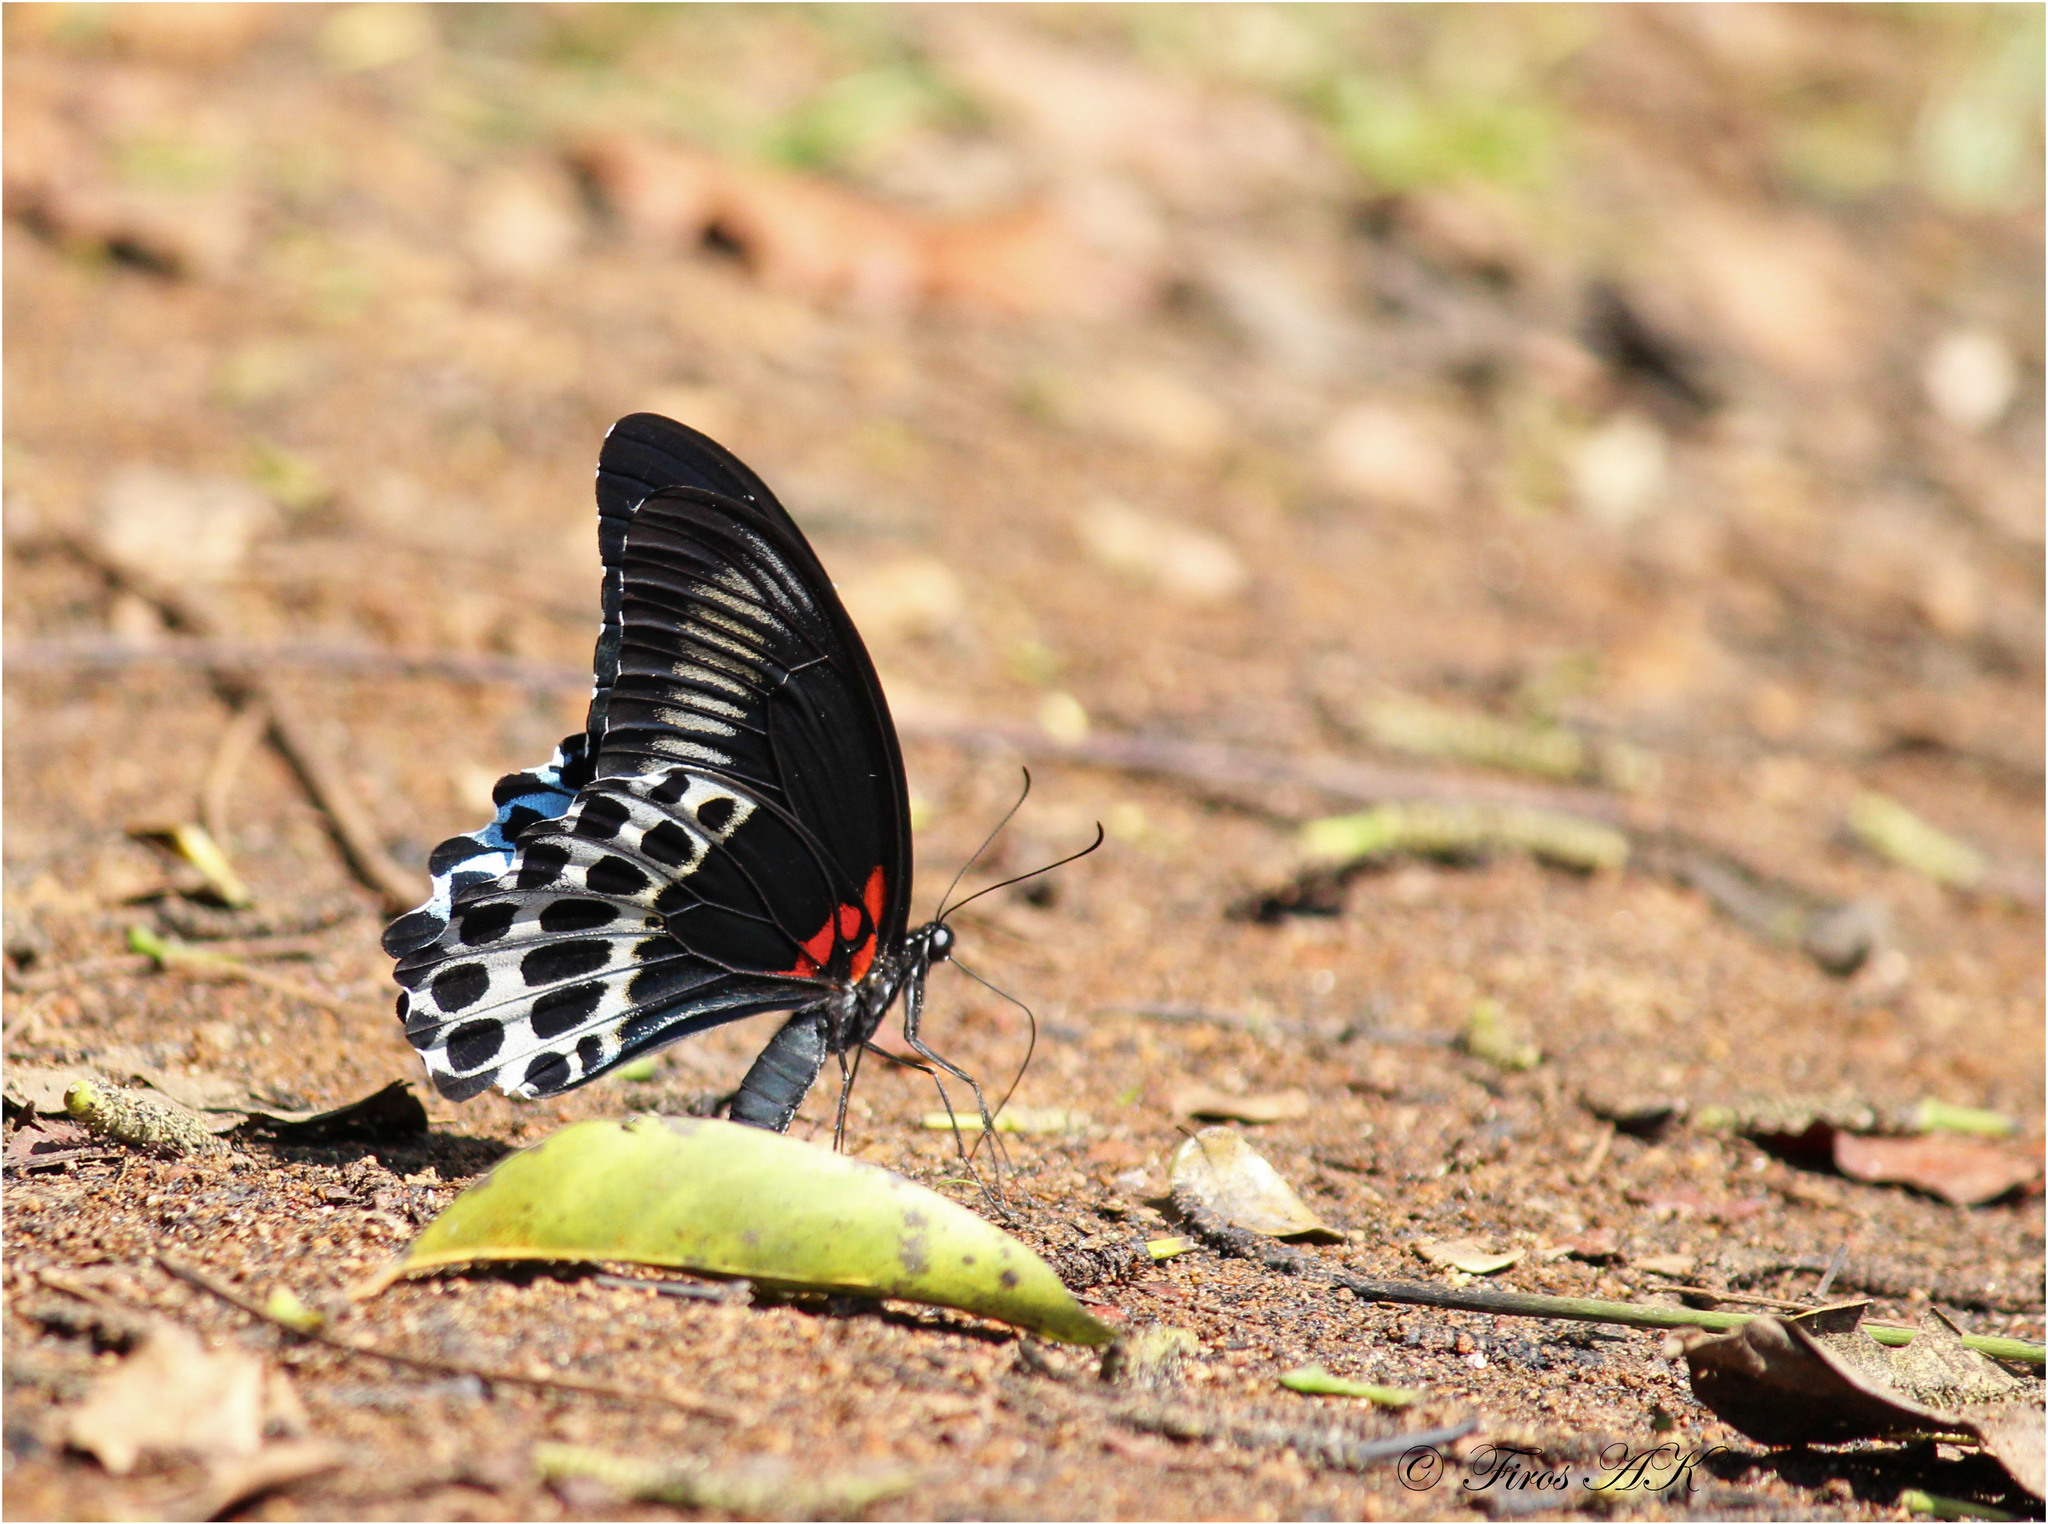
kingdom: Animalia
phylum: Arthropoda
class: Insecta
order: Lepidoptera
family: Papilionidae
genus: Papilio
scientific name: Papilio memnon
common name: Great mormon
